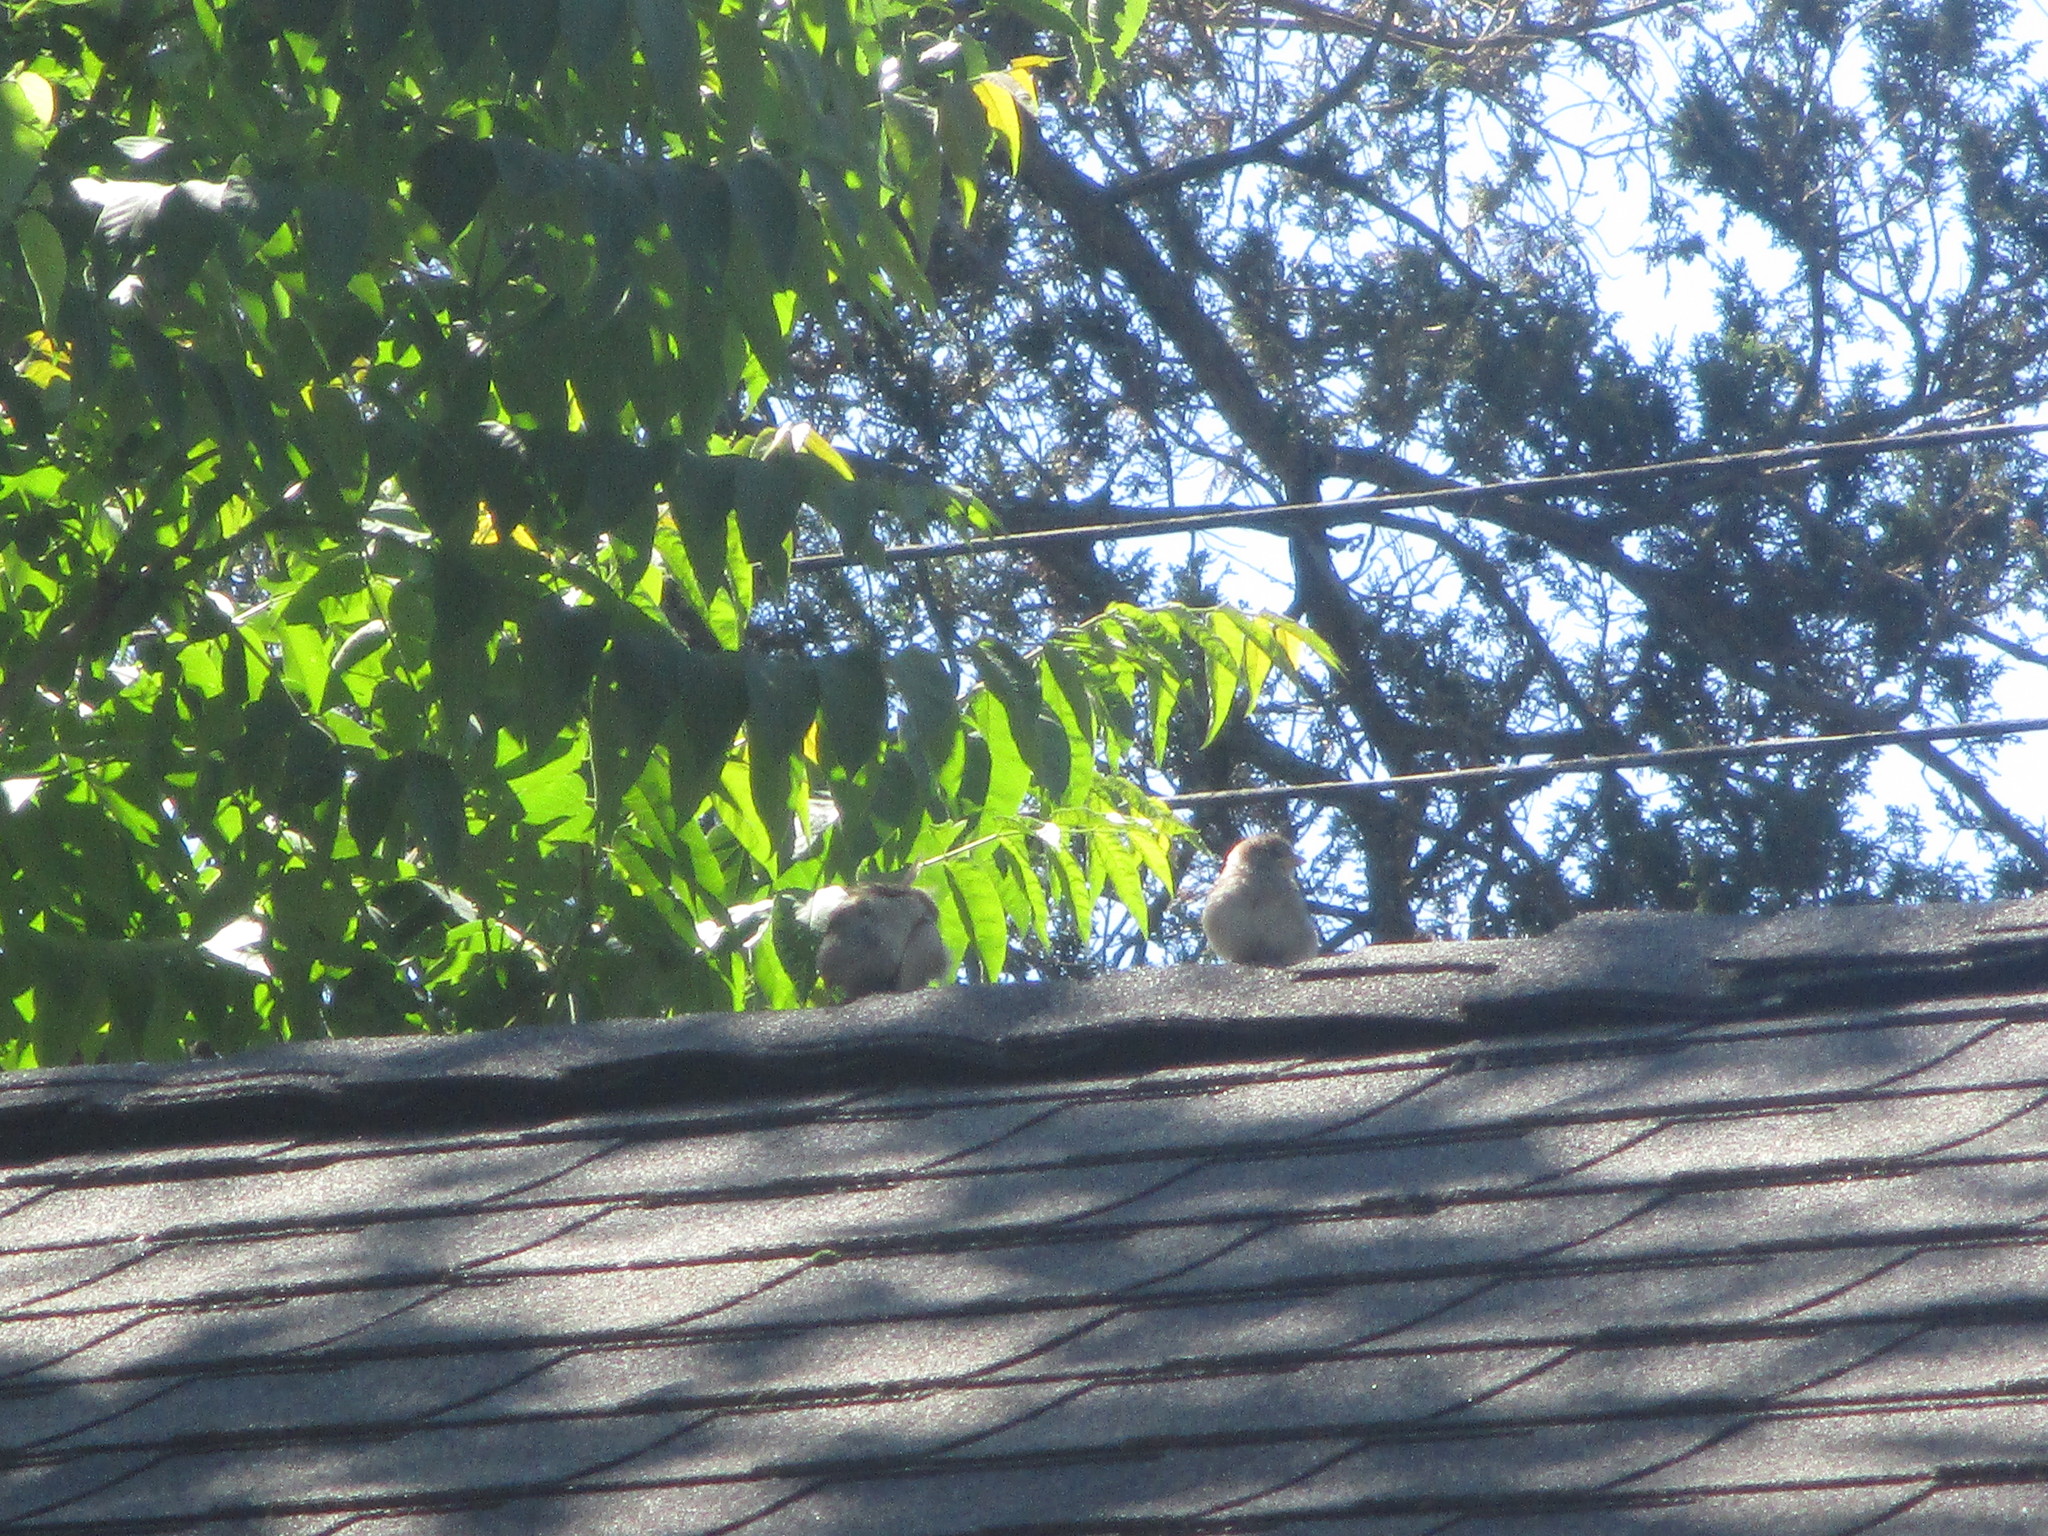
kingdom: Animalia
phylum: Chordata
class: Aves
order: Passeriformes
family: Passeridae
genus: Passer
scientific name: Passer domesticus
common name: House sparrow
